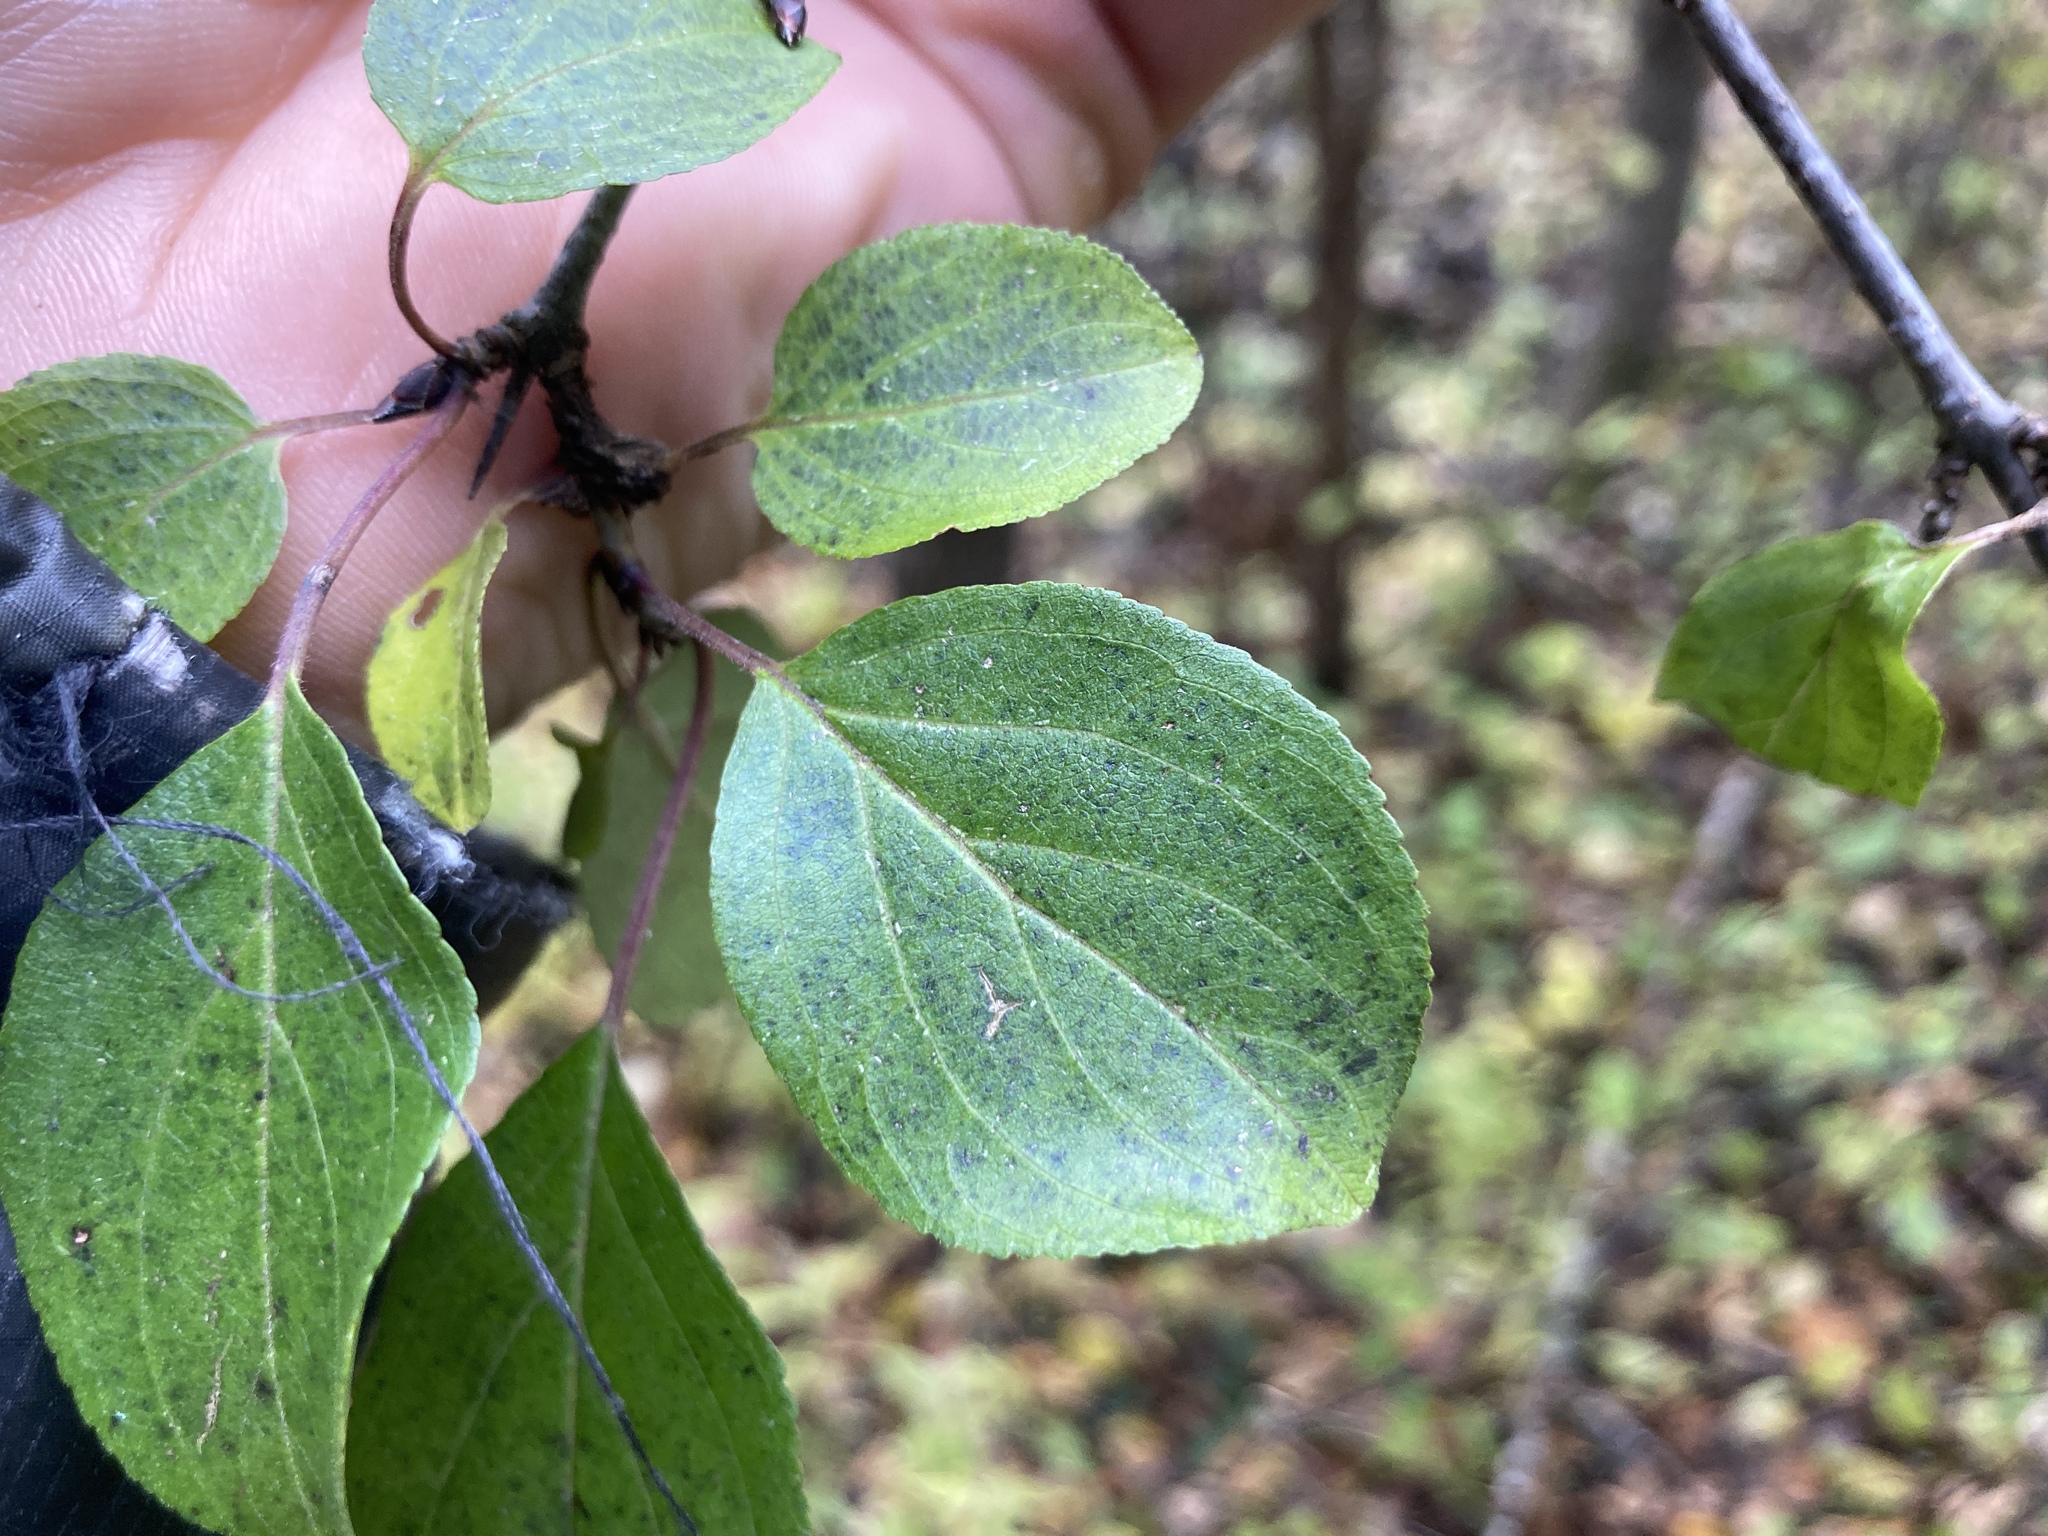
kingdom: Plantae
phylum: Tracheophyta
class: Magnoliopsida
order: Rosales
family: Rhamnaceae
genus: Rhamnus
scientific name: Rhamnus cathartica
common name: Common buckthorn
